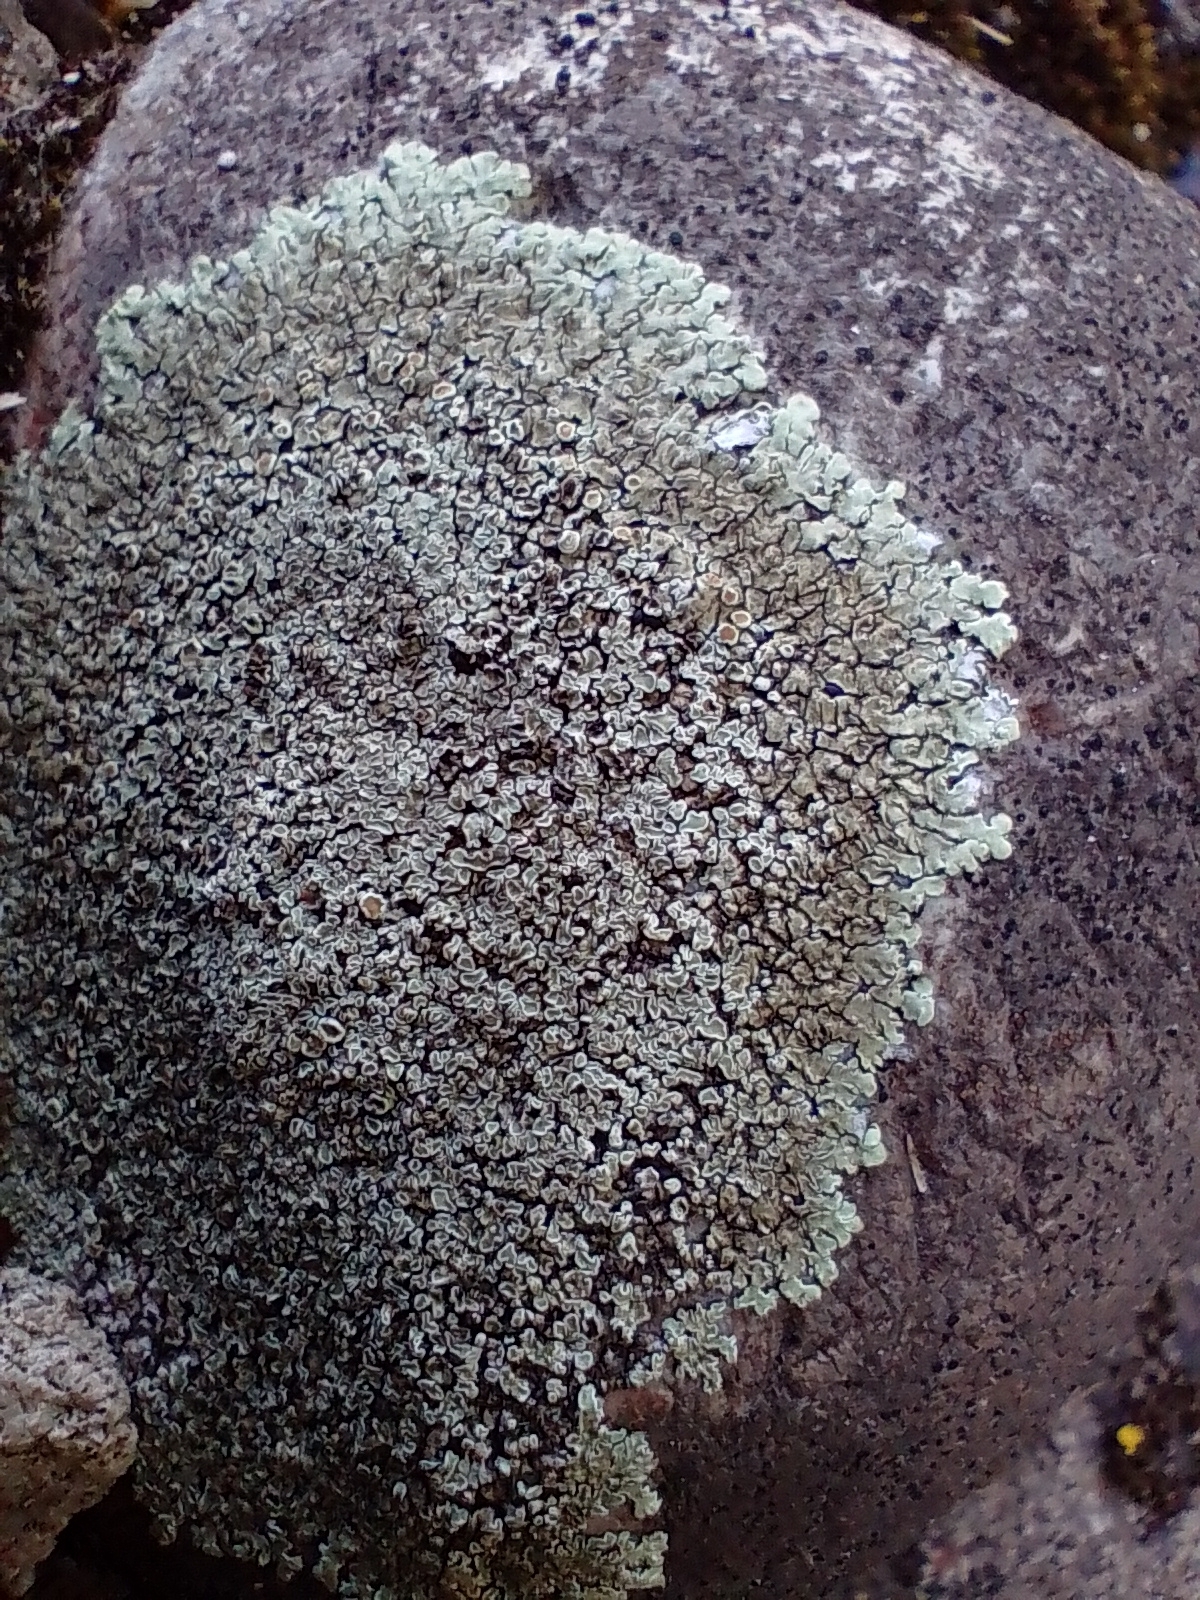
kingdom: Fungi
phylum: Ascomycota
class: Lecanoromycetes
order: Lecanorales
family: Lecanoraceae
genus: Protoparmeliopsis
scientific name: Protoparmeliopsis muralis
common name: Stonewall rim lichen
